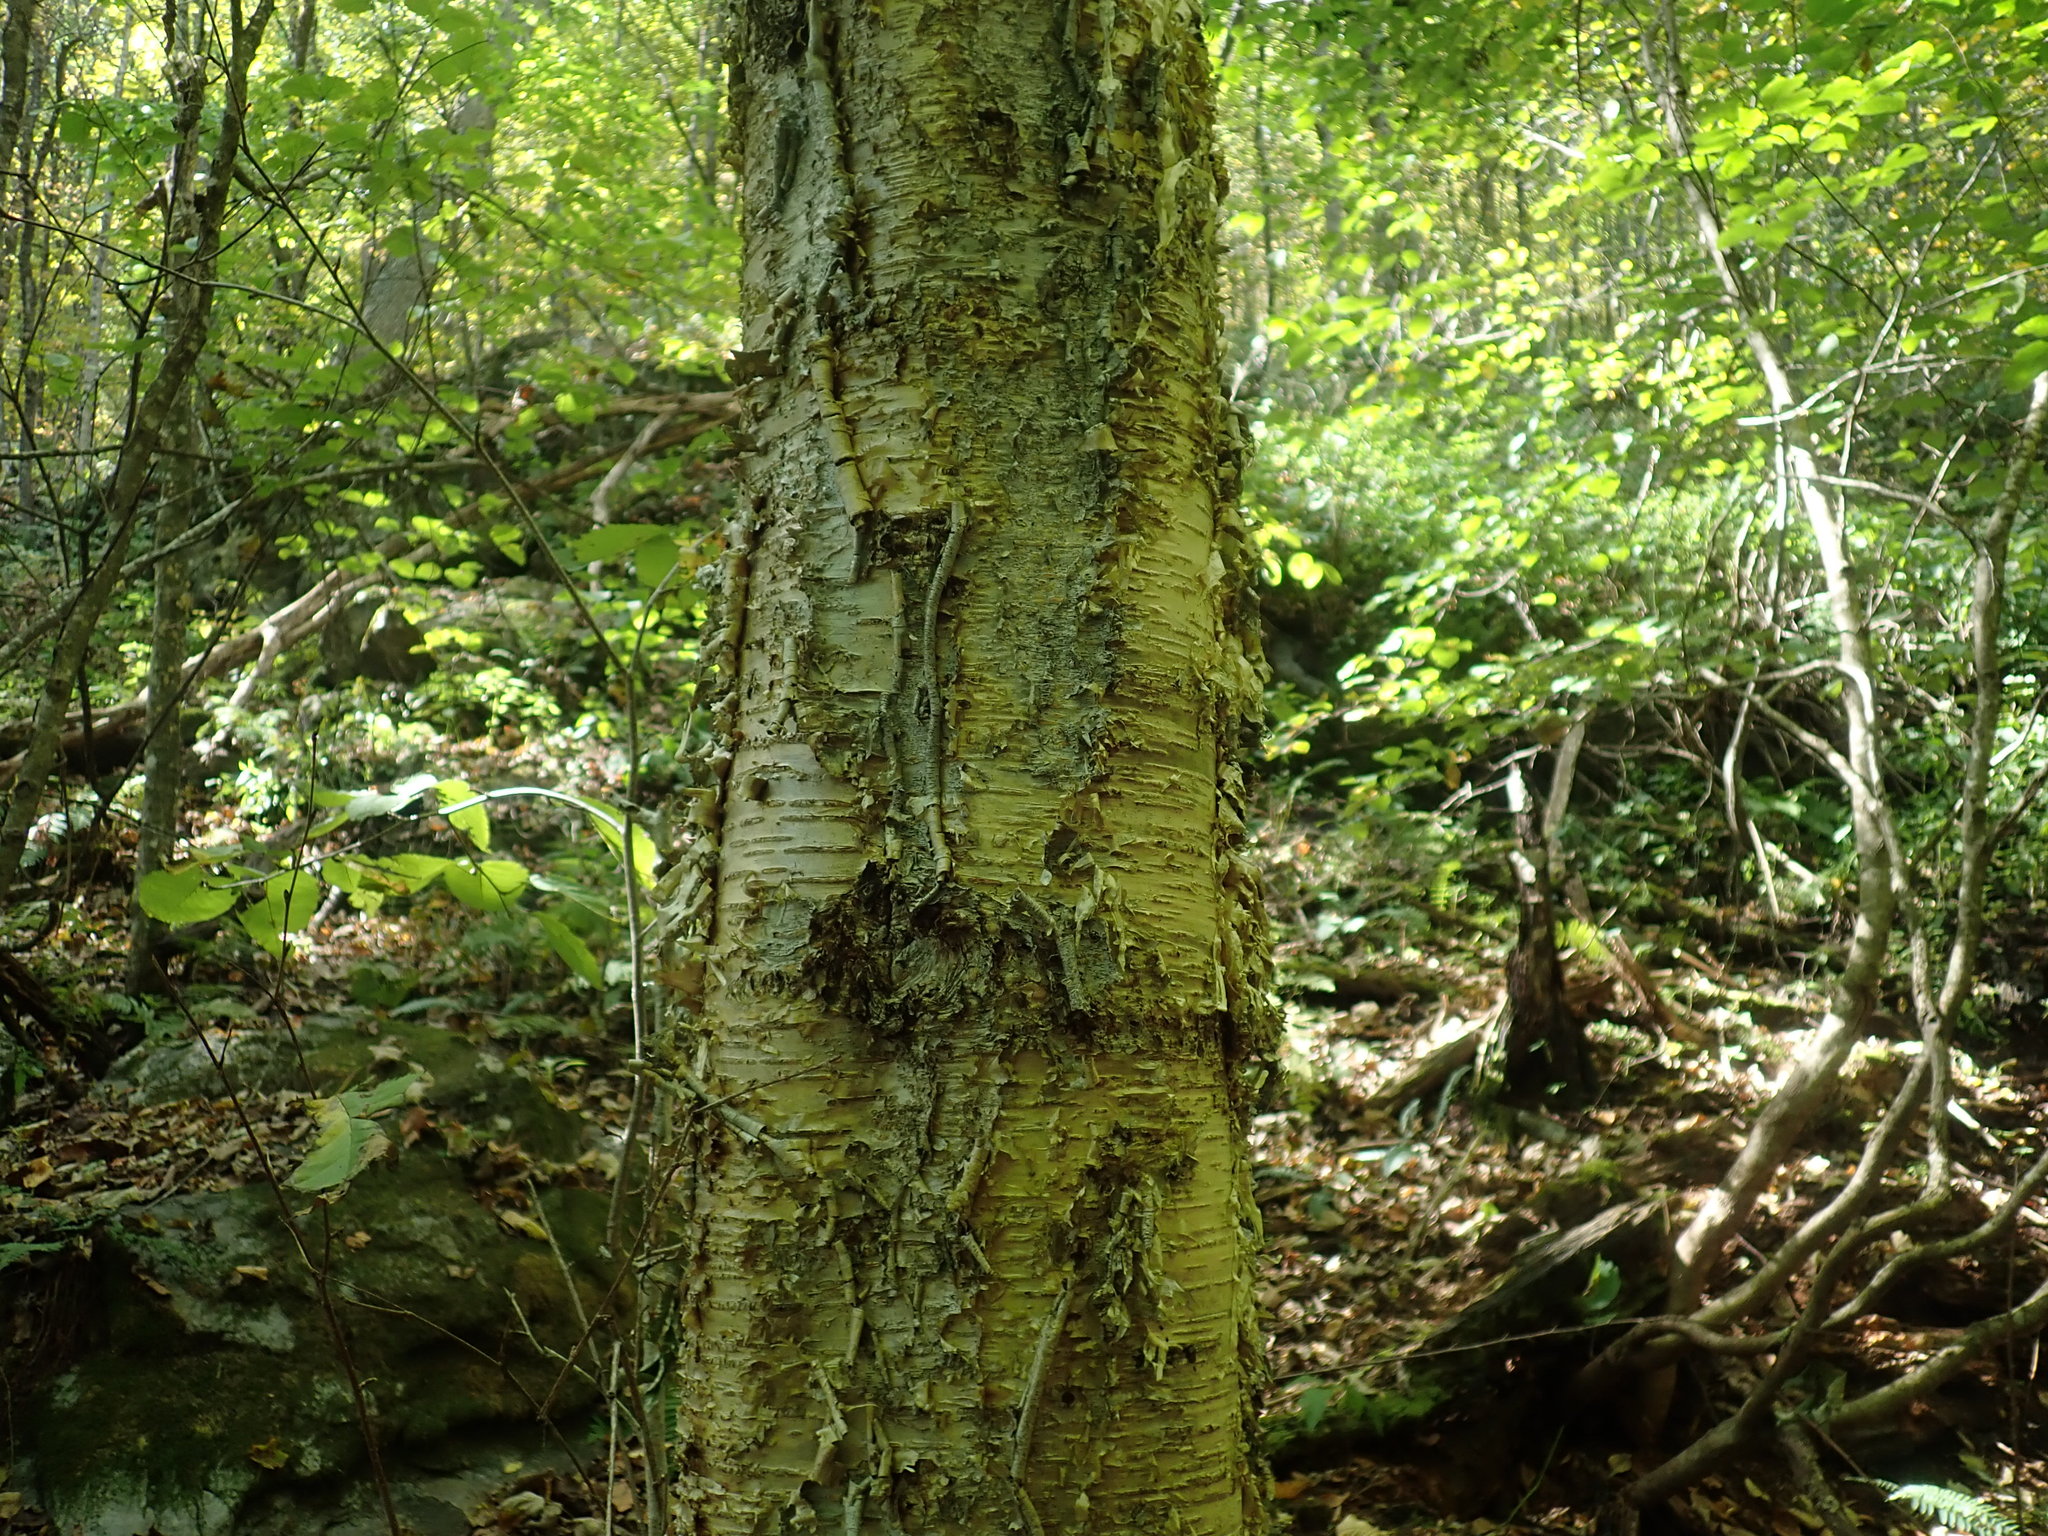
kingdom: Plantae
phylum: Tracheophyta
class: Magnoliopsida
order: Fagales
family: Betulaceae
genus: Betula
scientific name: Betula alleghaniensis
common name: Yellow birch
